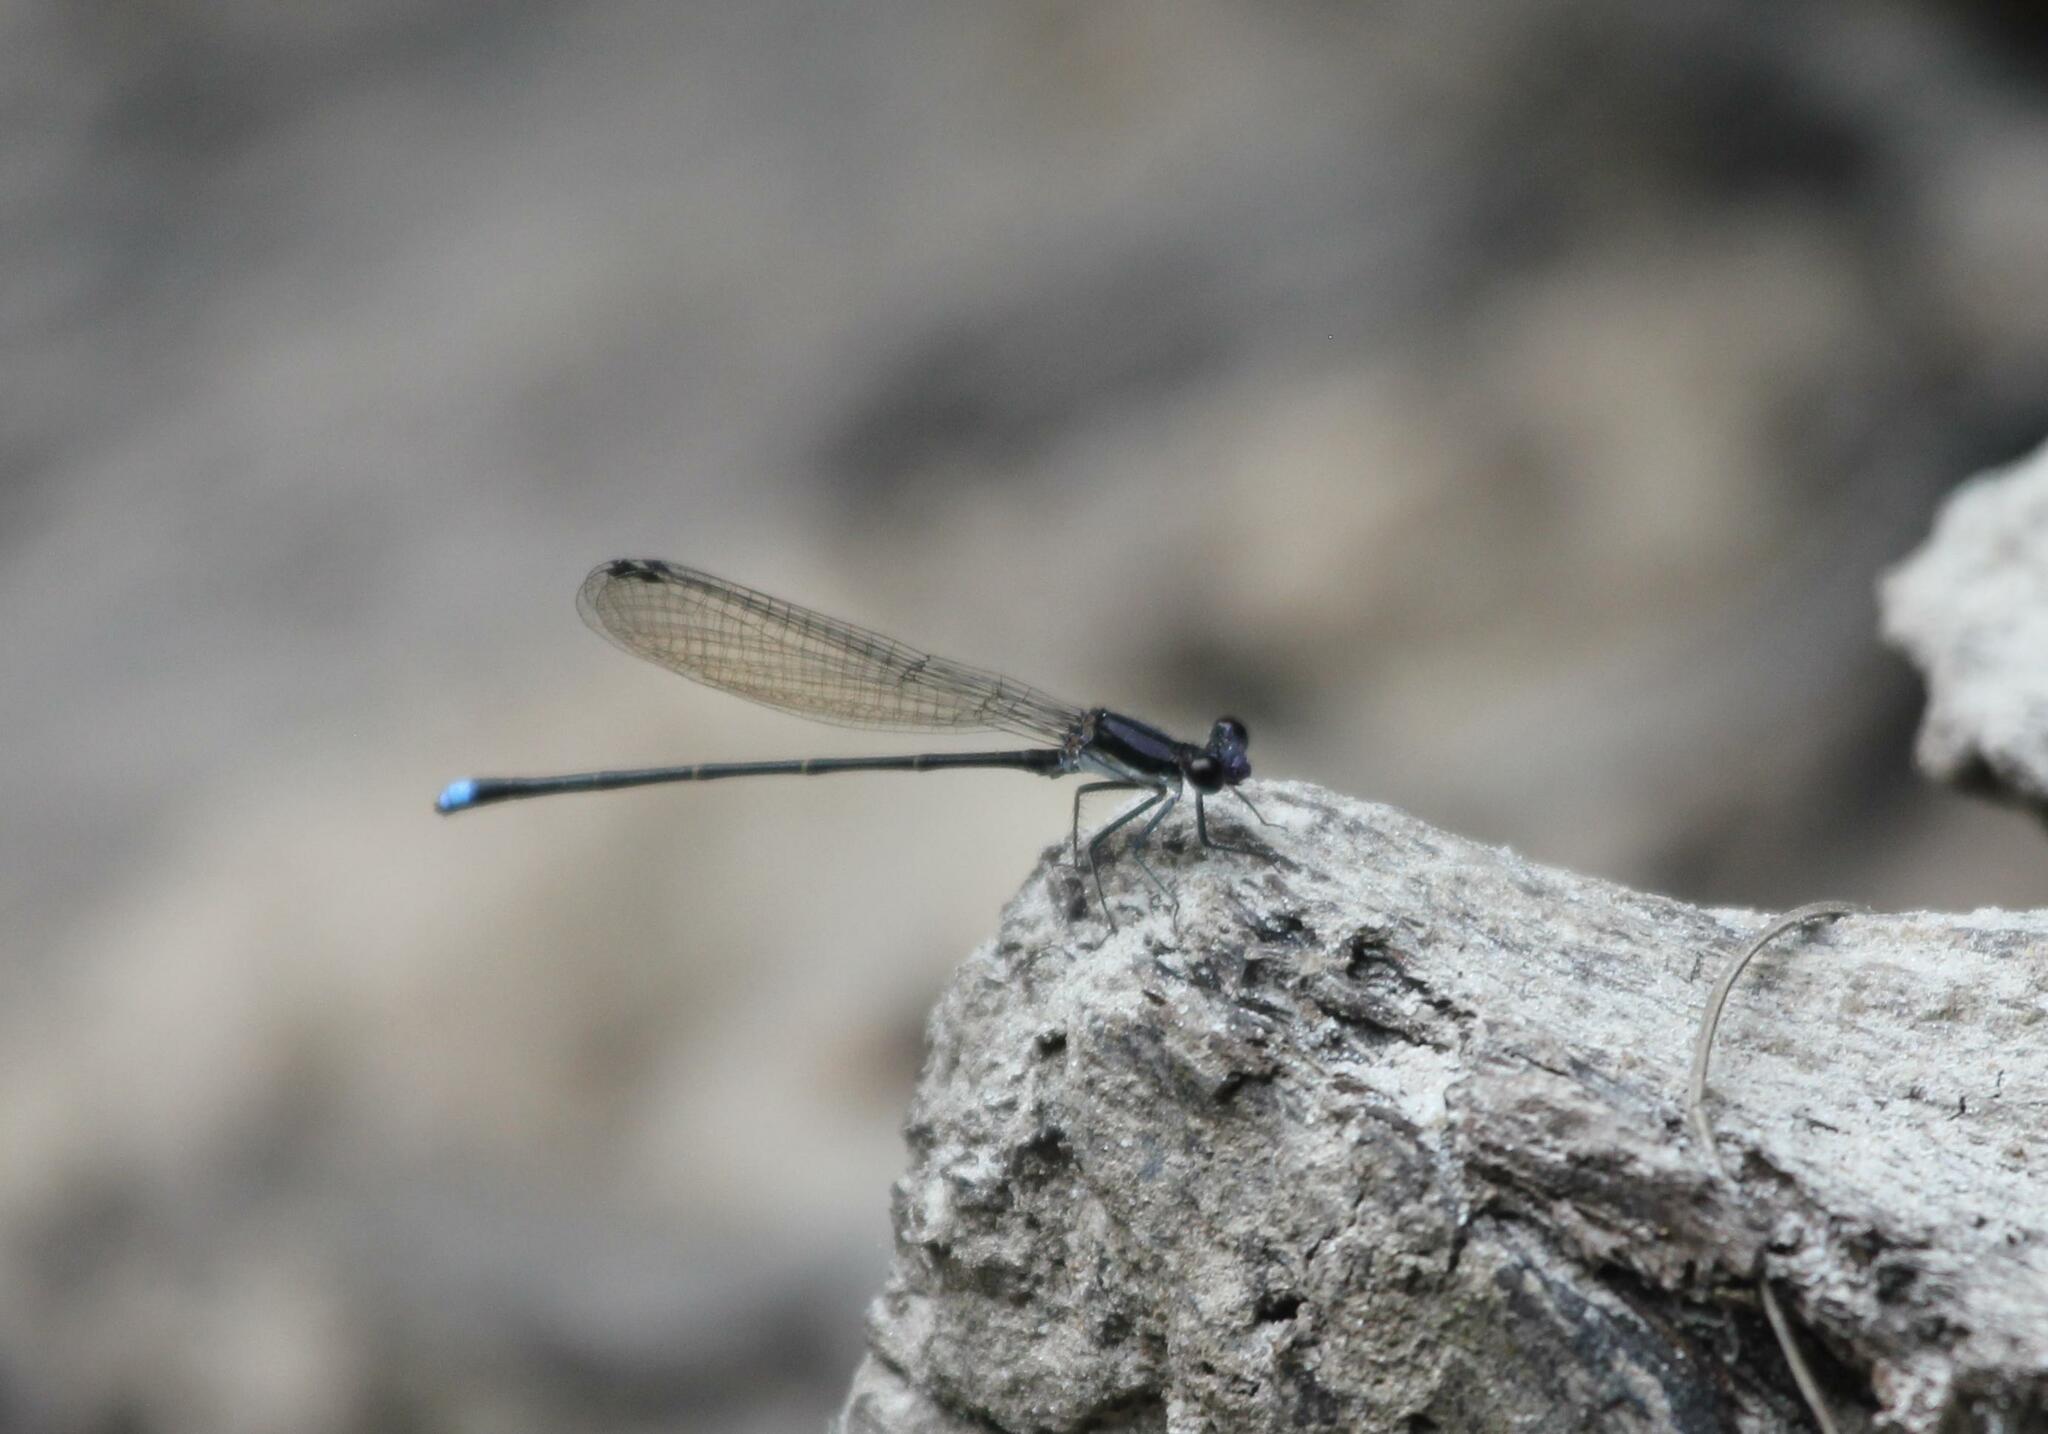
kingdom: Animalia
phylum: Arthropoda
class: Insecta
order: Odonata
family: Coenagrionidae
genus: Argia
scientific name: Argia tibialis
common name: Blue-tipped dancer
